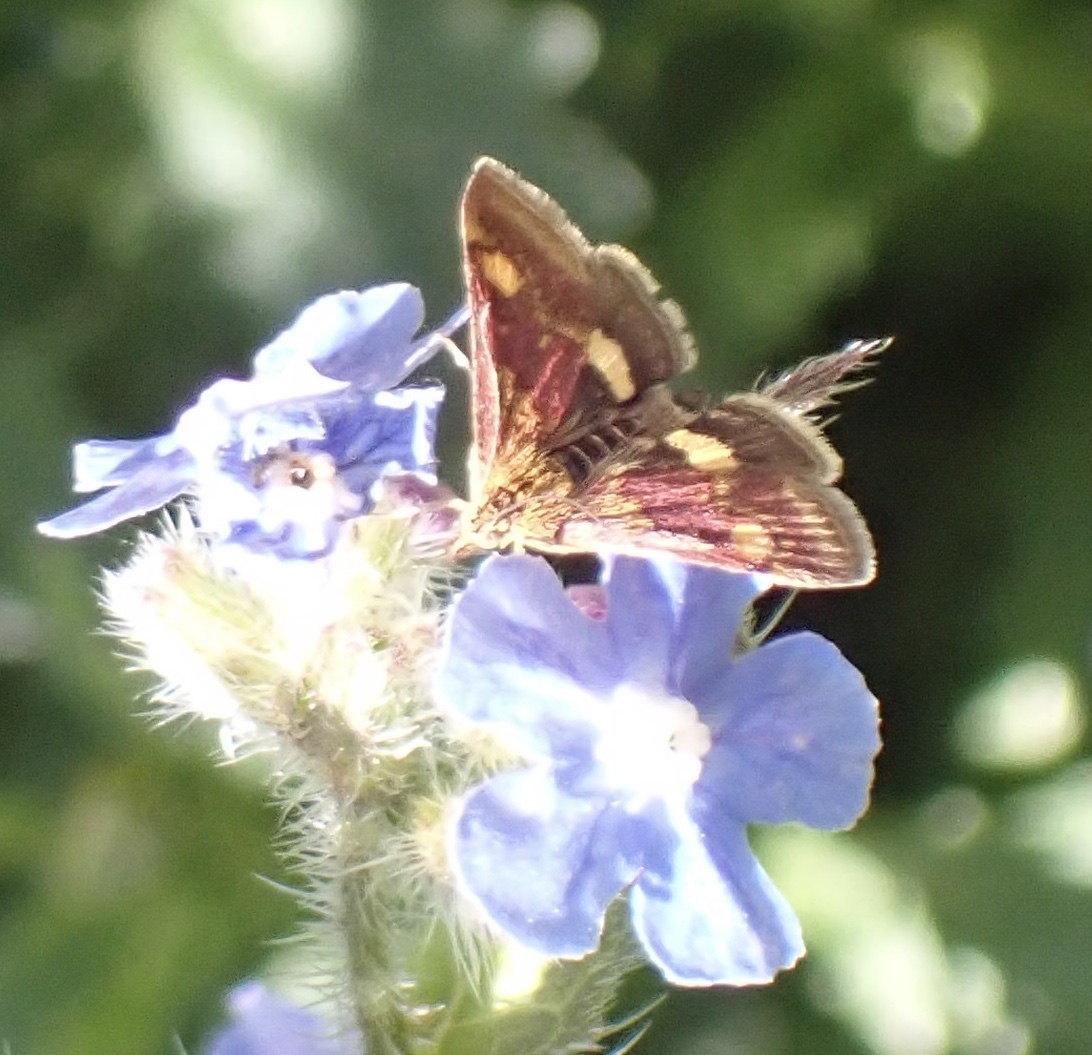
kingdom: Animalia
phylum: Arthropoda
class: Insecta
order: Lepidoptera
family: Crambidae
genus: Pyrausta
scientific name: Pyrausta aurata
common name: Small purple & gold
